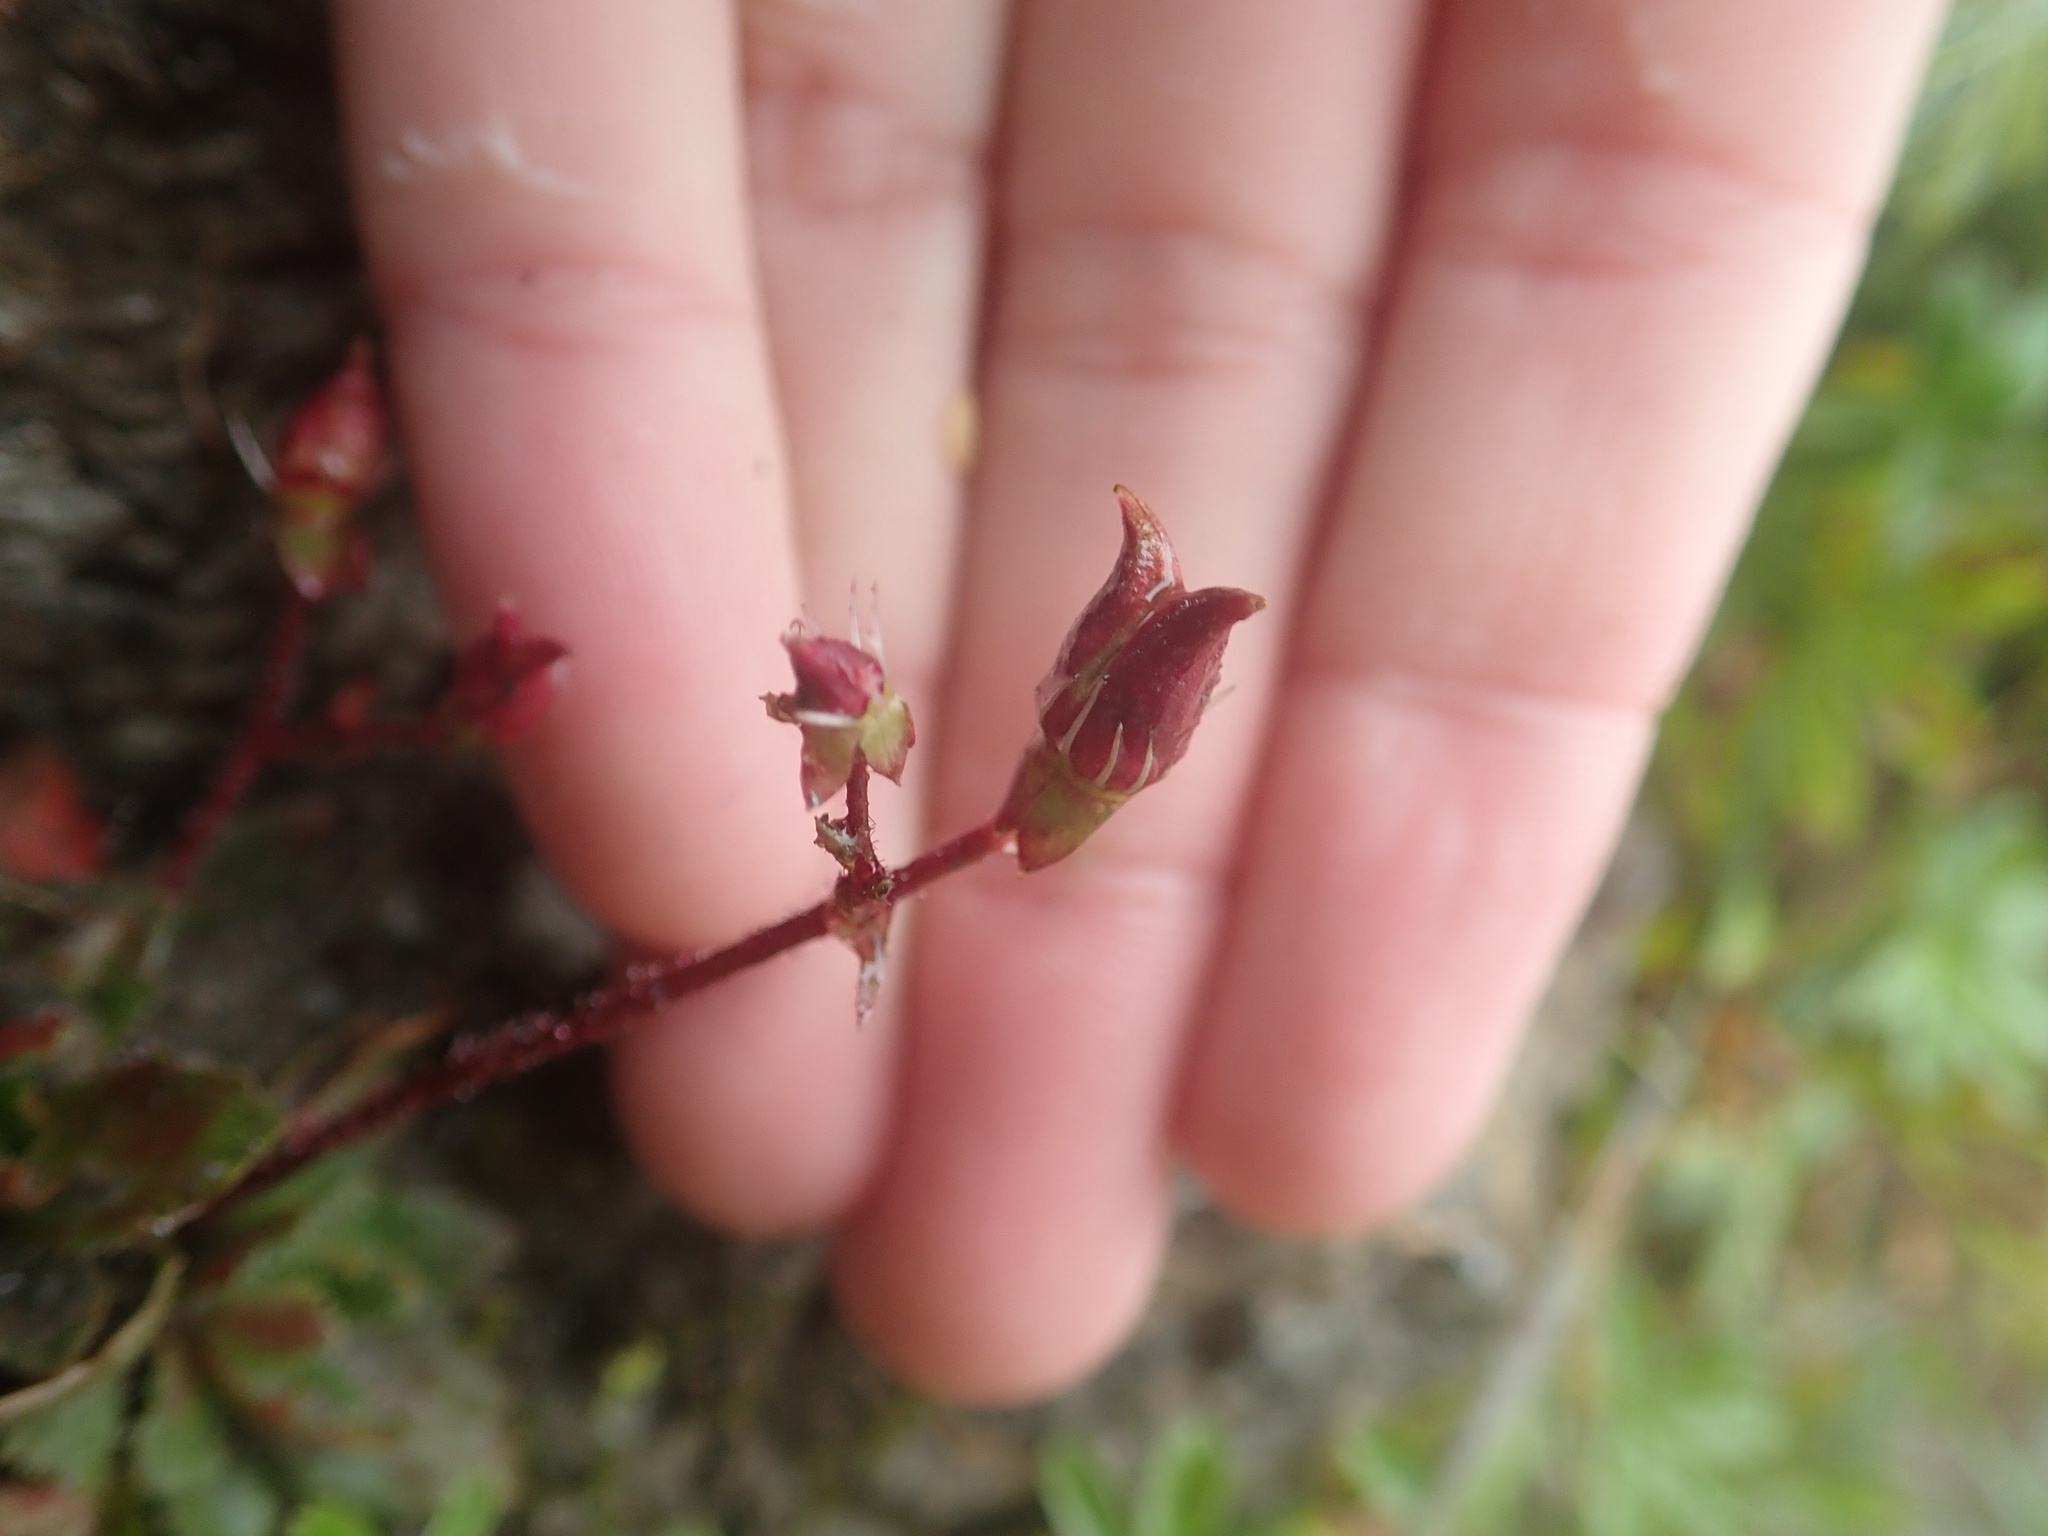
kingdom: Plantae
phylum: Tracheophyta
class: Magnoliopsida
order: Saxifragales
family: Saxifragaceae
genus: Micranthes
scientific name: Micranthes stellaris
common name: Starry saxifrage
